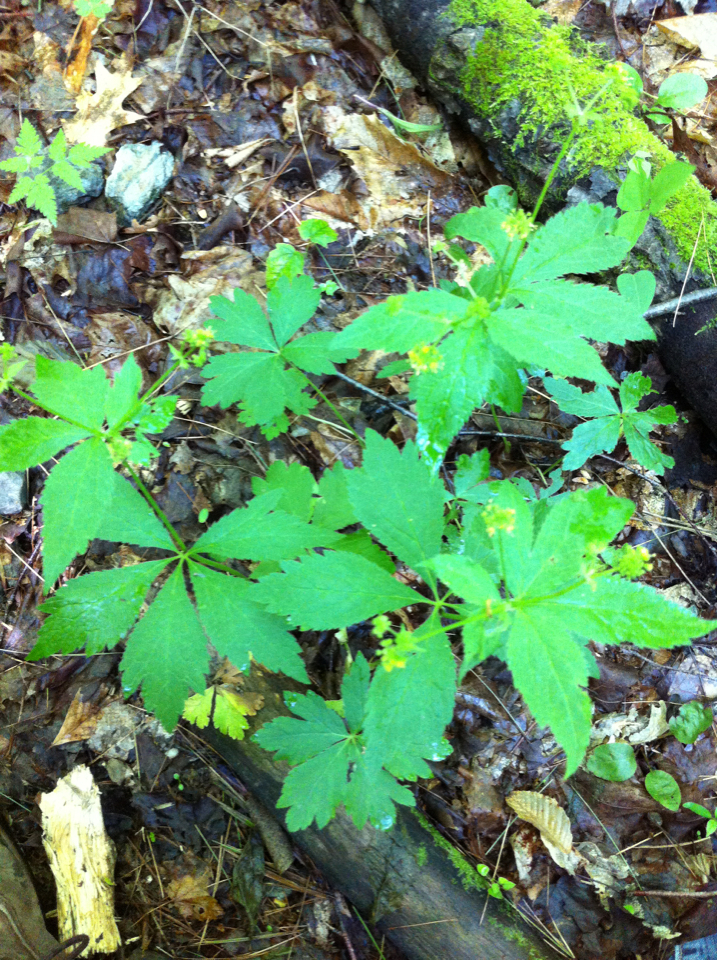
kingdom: Plantae
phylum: Tracheophyta
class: Magnoliopsida
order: Apiales
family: Apiaceae
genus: Sanicula
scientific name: Sanicula odorata
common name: Cluster sanicle
